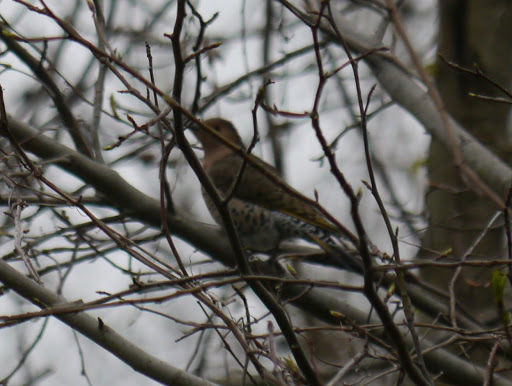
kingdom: Animalia
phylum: Chordata
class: Aves
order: Piciformes
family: Picidae
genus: Colaptes
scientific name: Colaptes auratus
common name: Northern flicker
